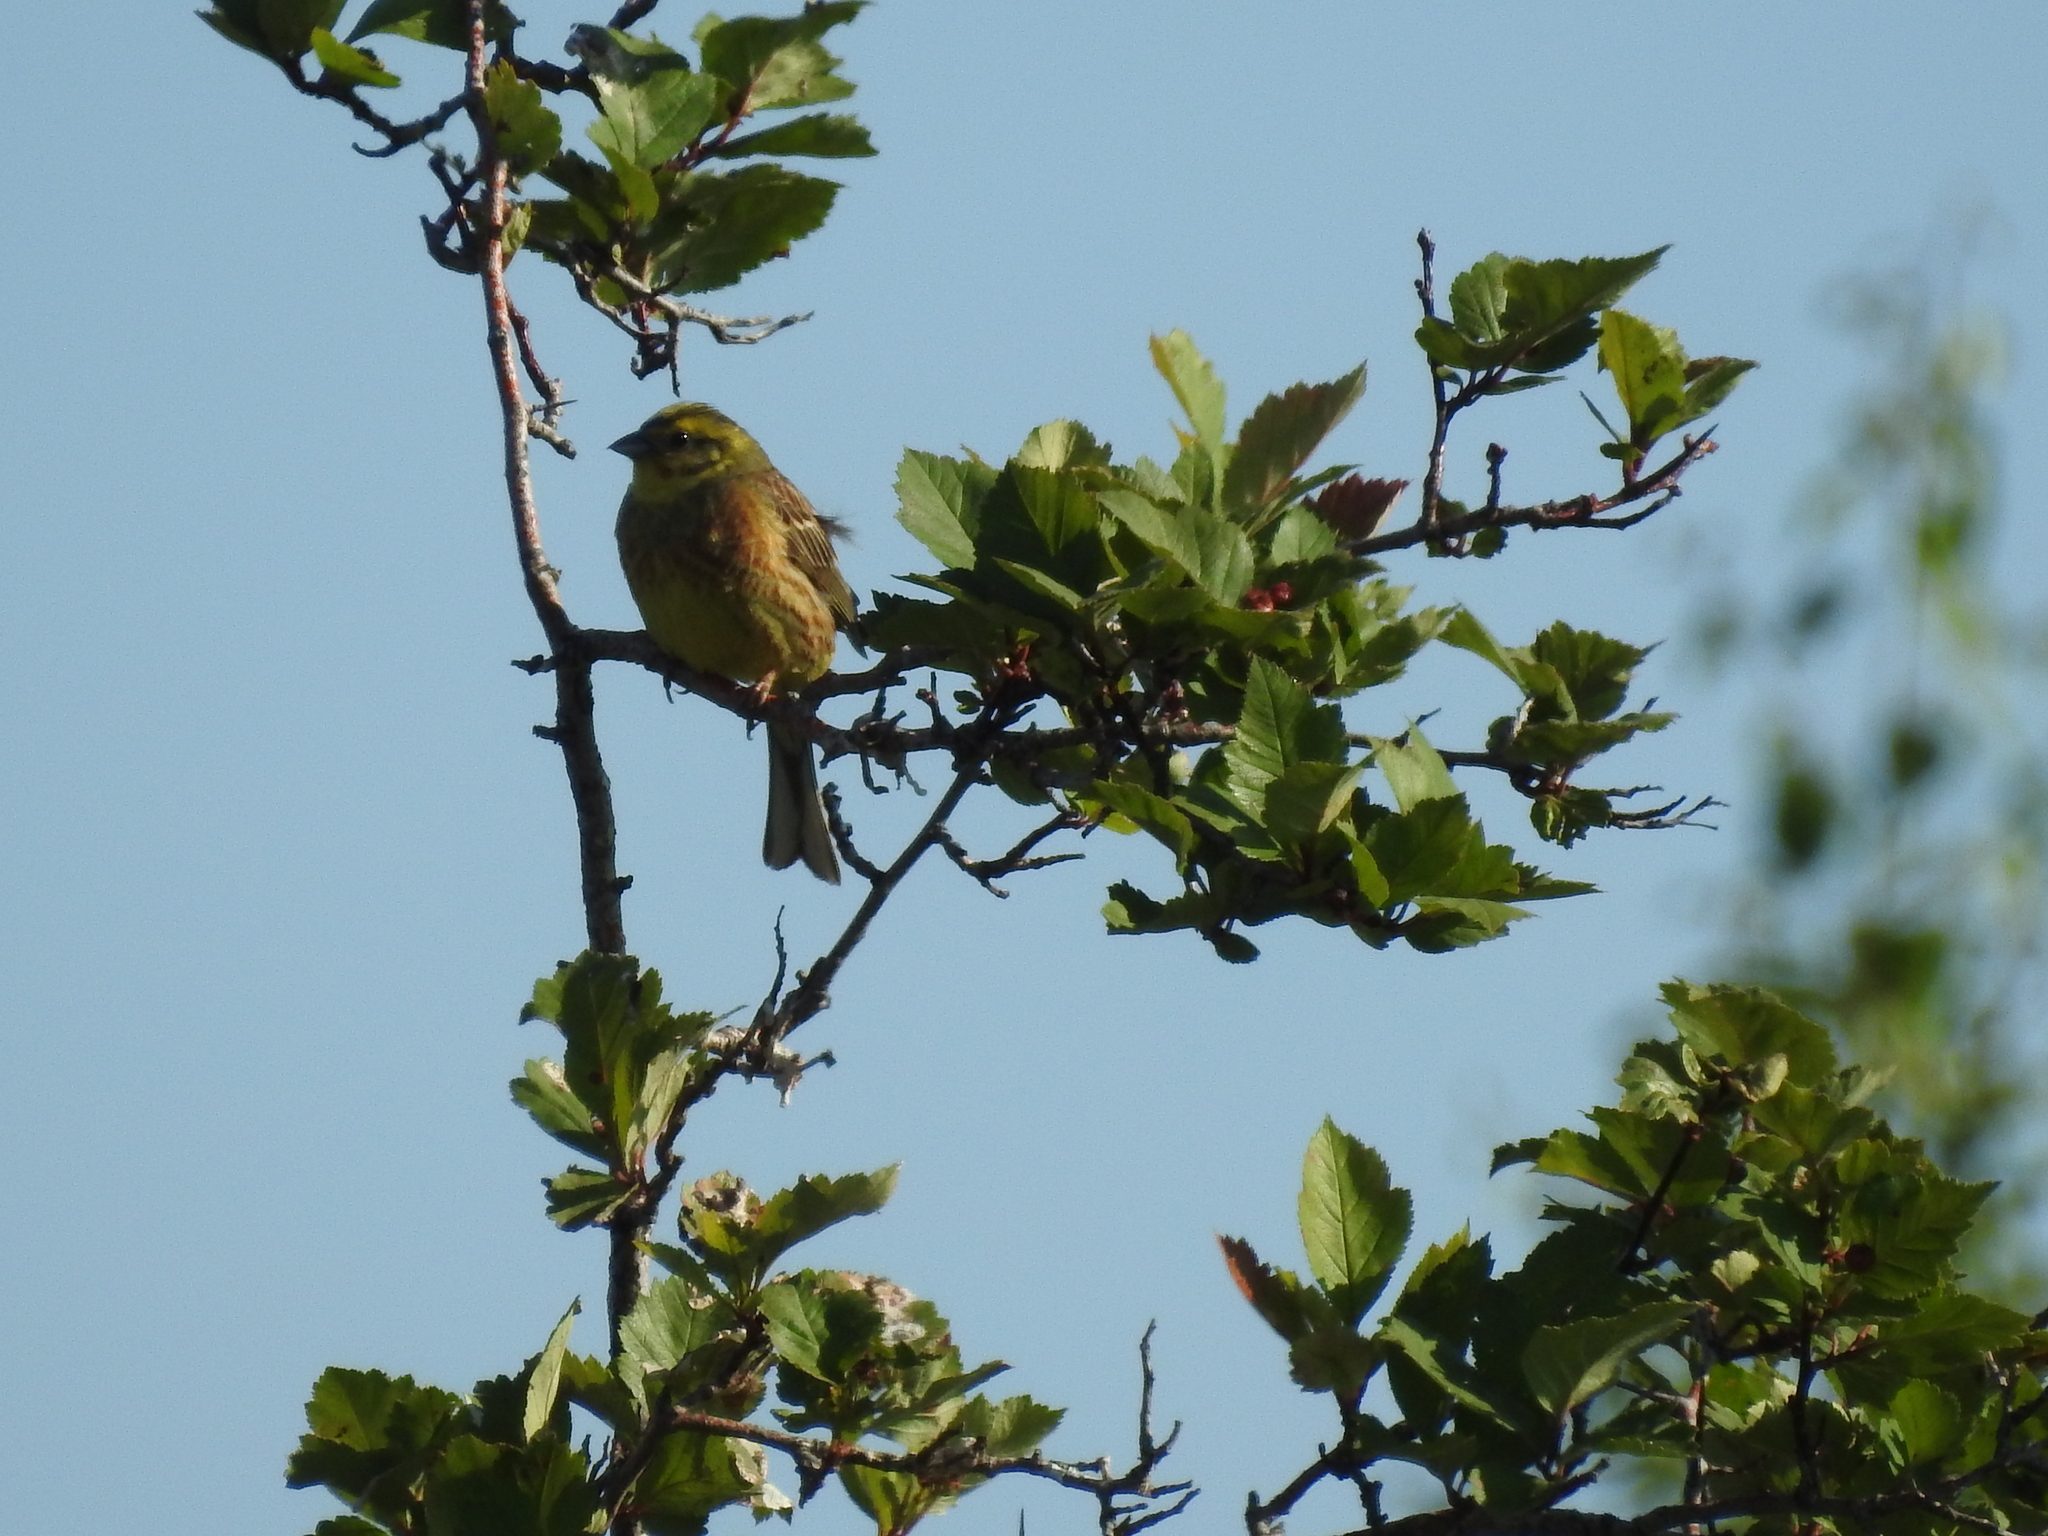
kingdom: Animalia
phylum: Chordata
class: Aves
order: Passeriformes
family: Emberizidae
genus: Emberiza
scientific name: Emberiza citrinella
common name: Yellowhammer
